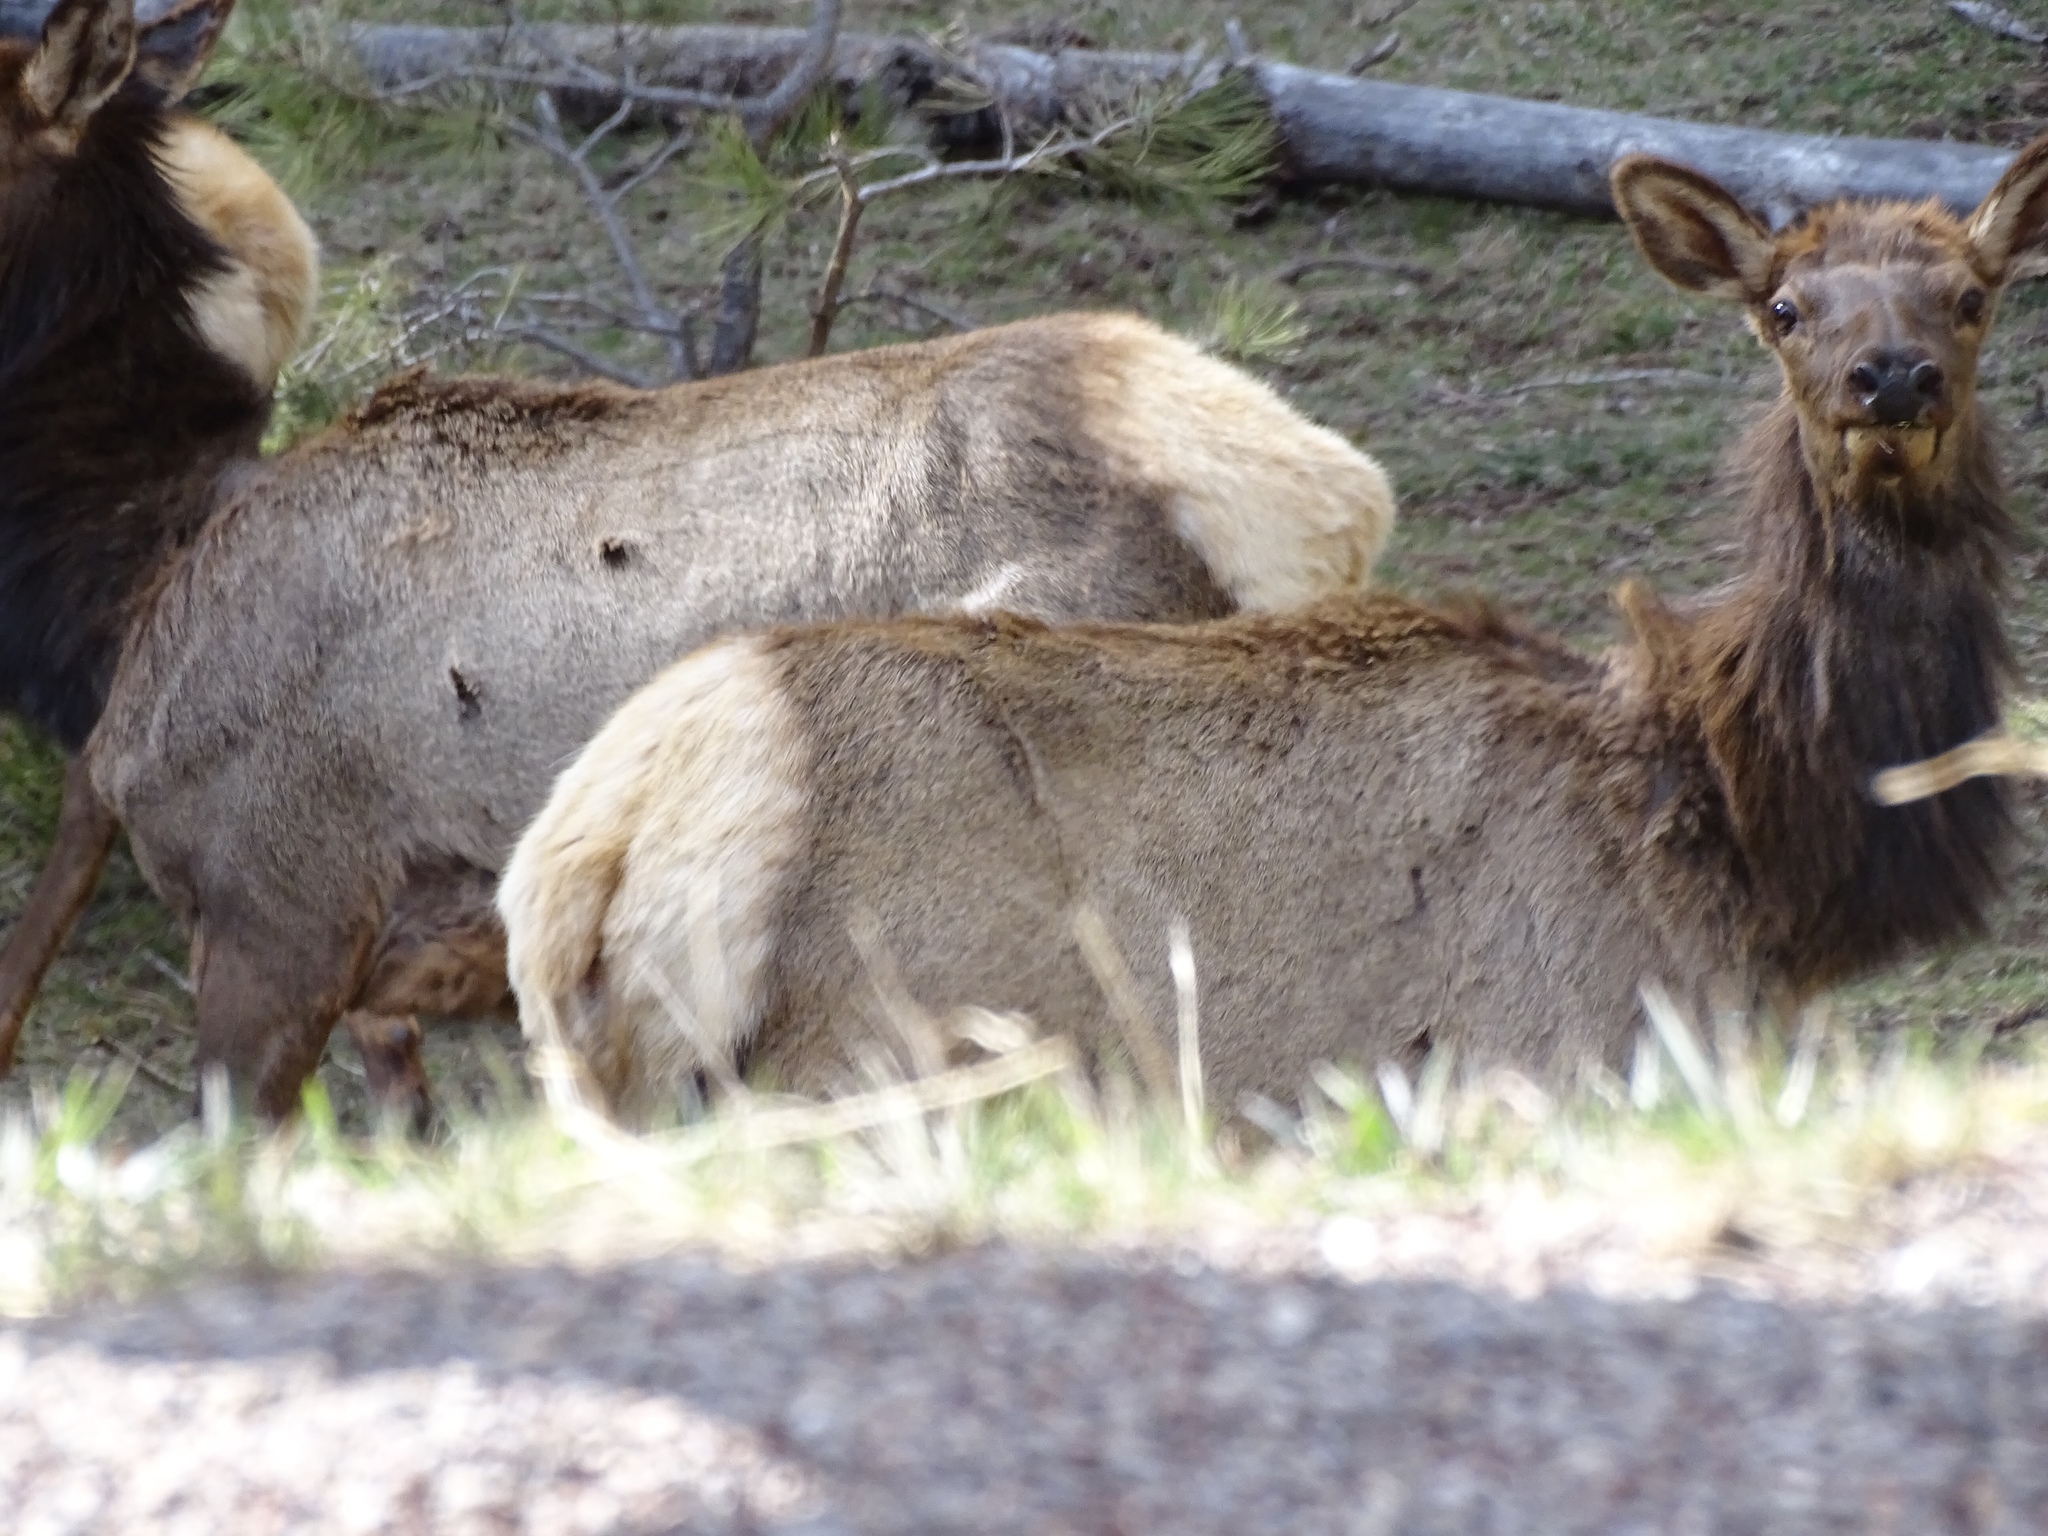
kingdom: Animalia
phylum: Chordata
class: Mammalia
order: Artiodactyla
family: Cervidae
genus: Cervus
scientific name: Cervus elaphus
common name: Red deer
